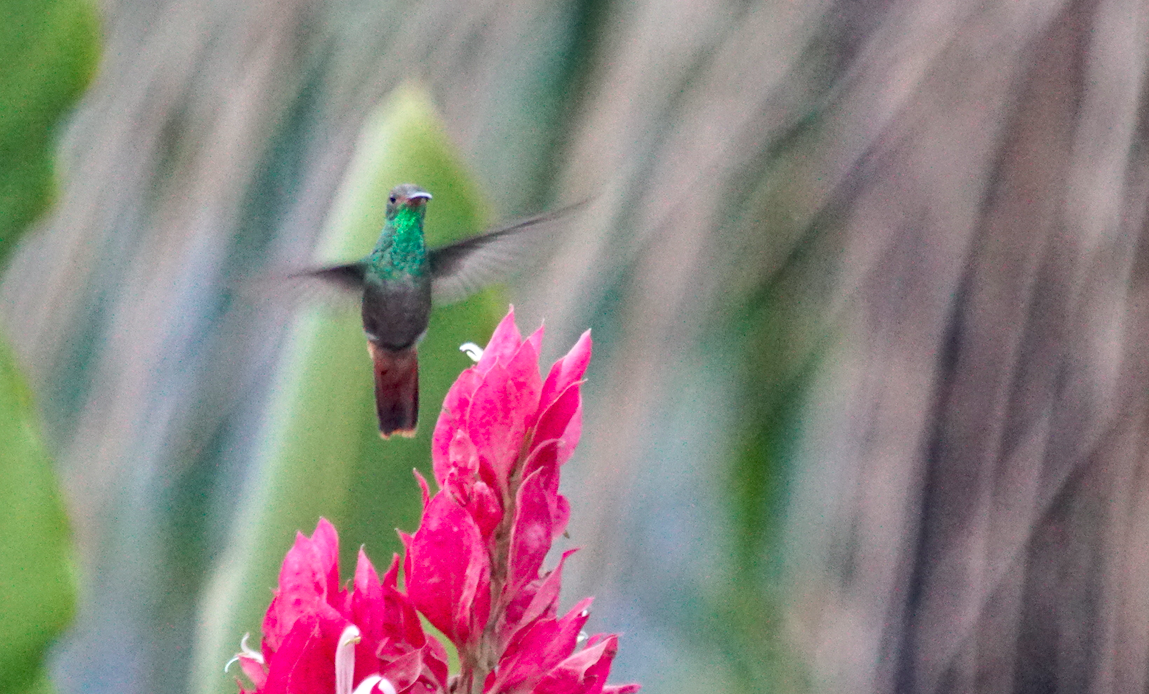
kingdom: Animalia
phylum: Chordata
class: Aves
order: Apodiformes
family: Trochilidae
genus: Amazilia
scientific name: Amazilia tzacatl
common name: Rufous-tailed hummingbird
